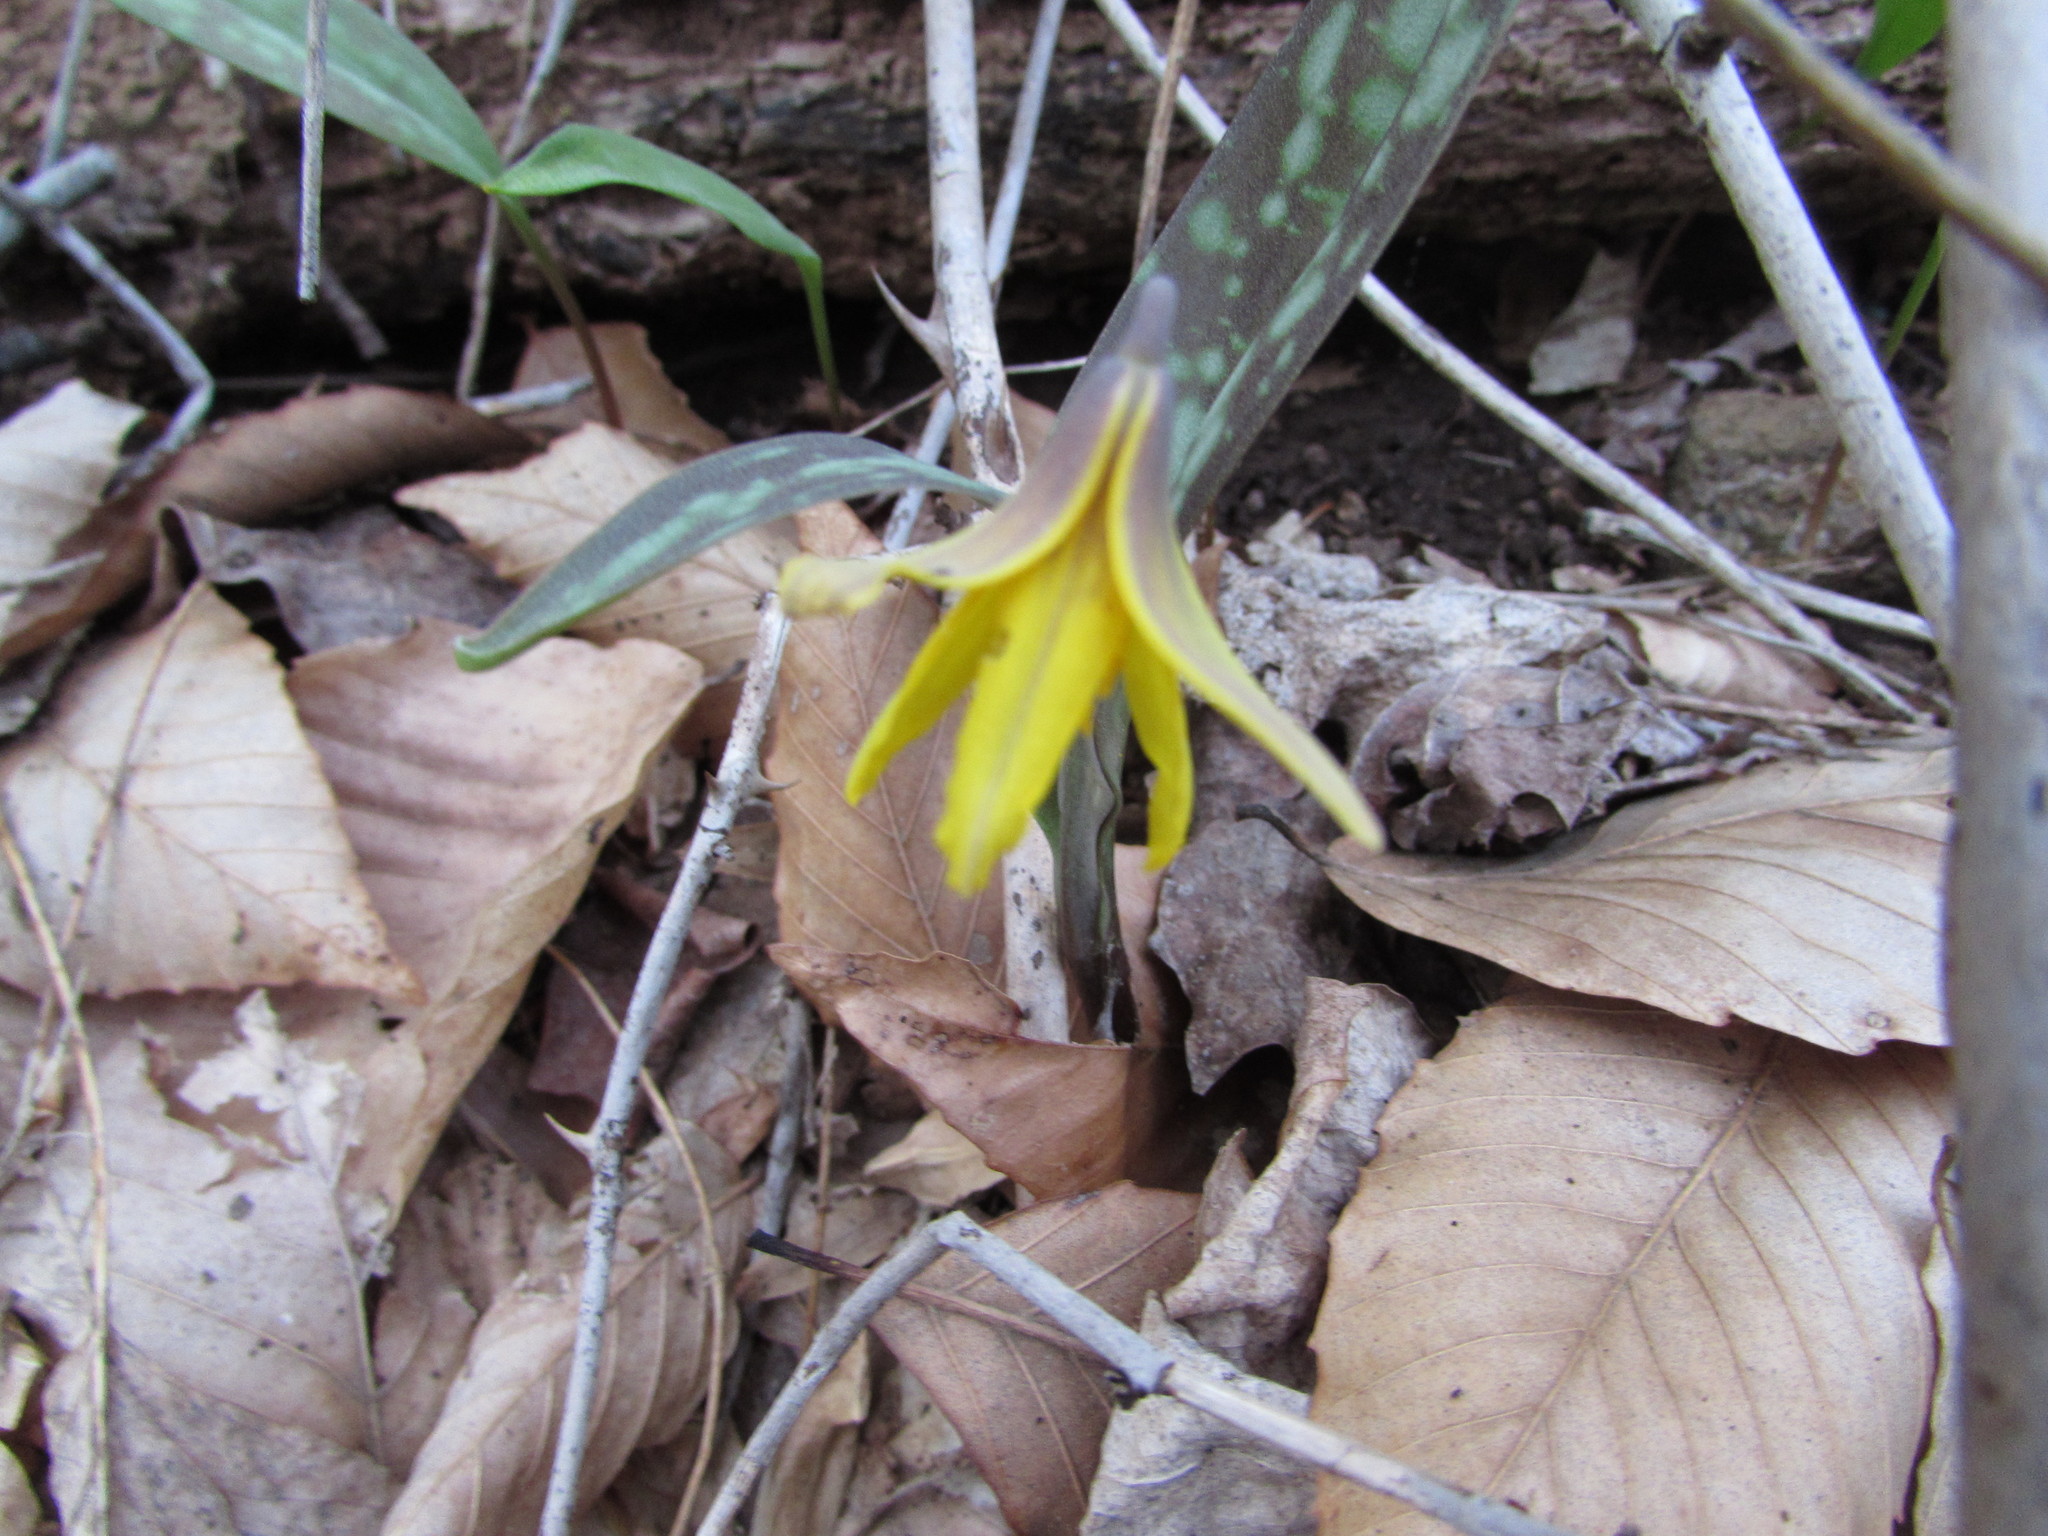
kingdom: Plantae
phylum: Tracheophyta
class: Liliopsida
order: Liliales
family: Liliaceae
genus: Erythronium
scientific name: Erythronium americanum
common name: Yellow adder's-tongue
